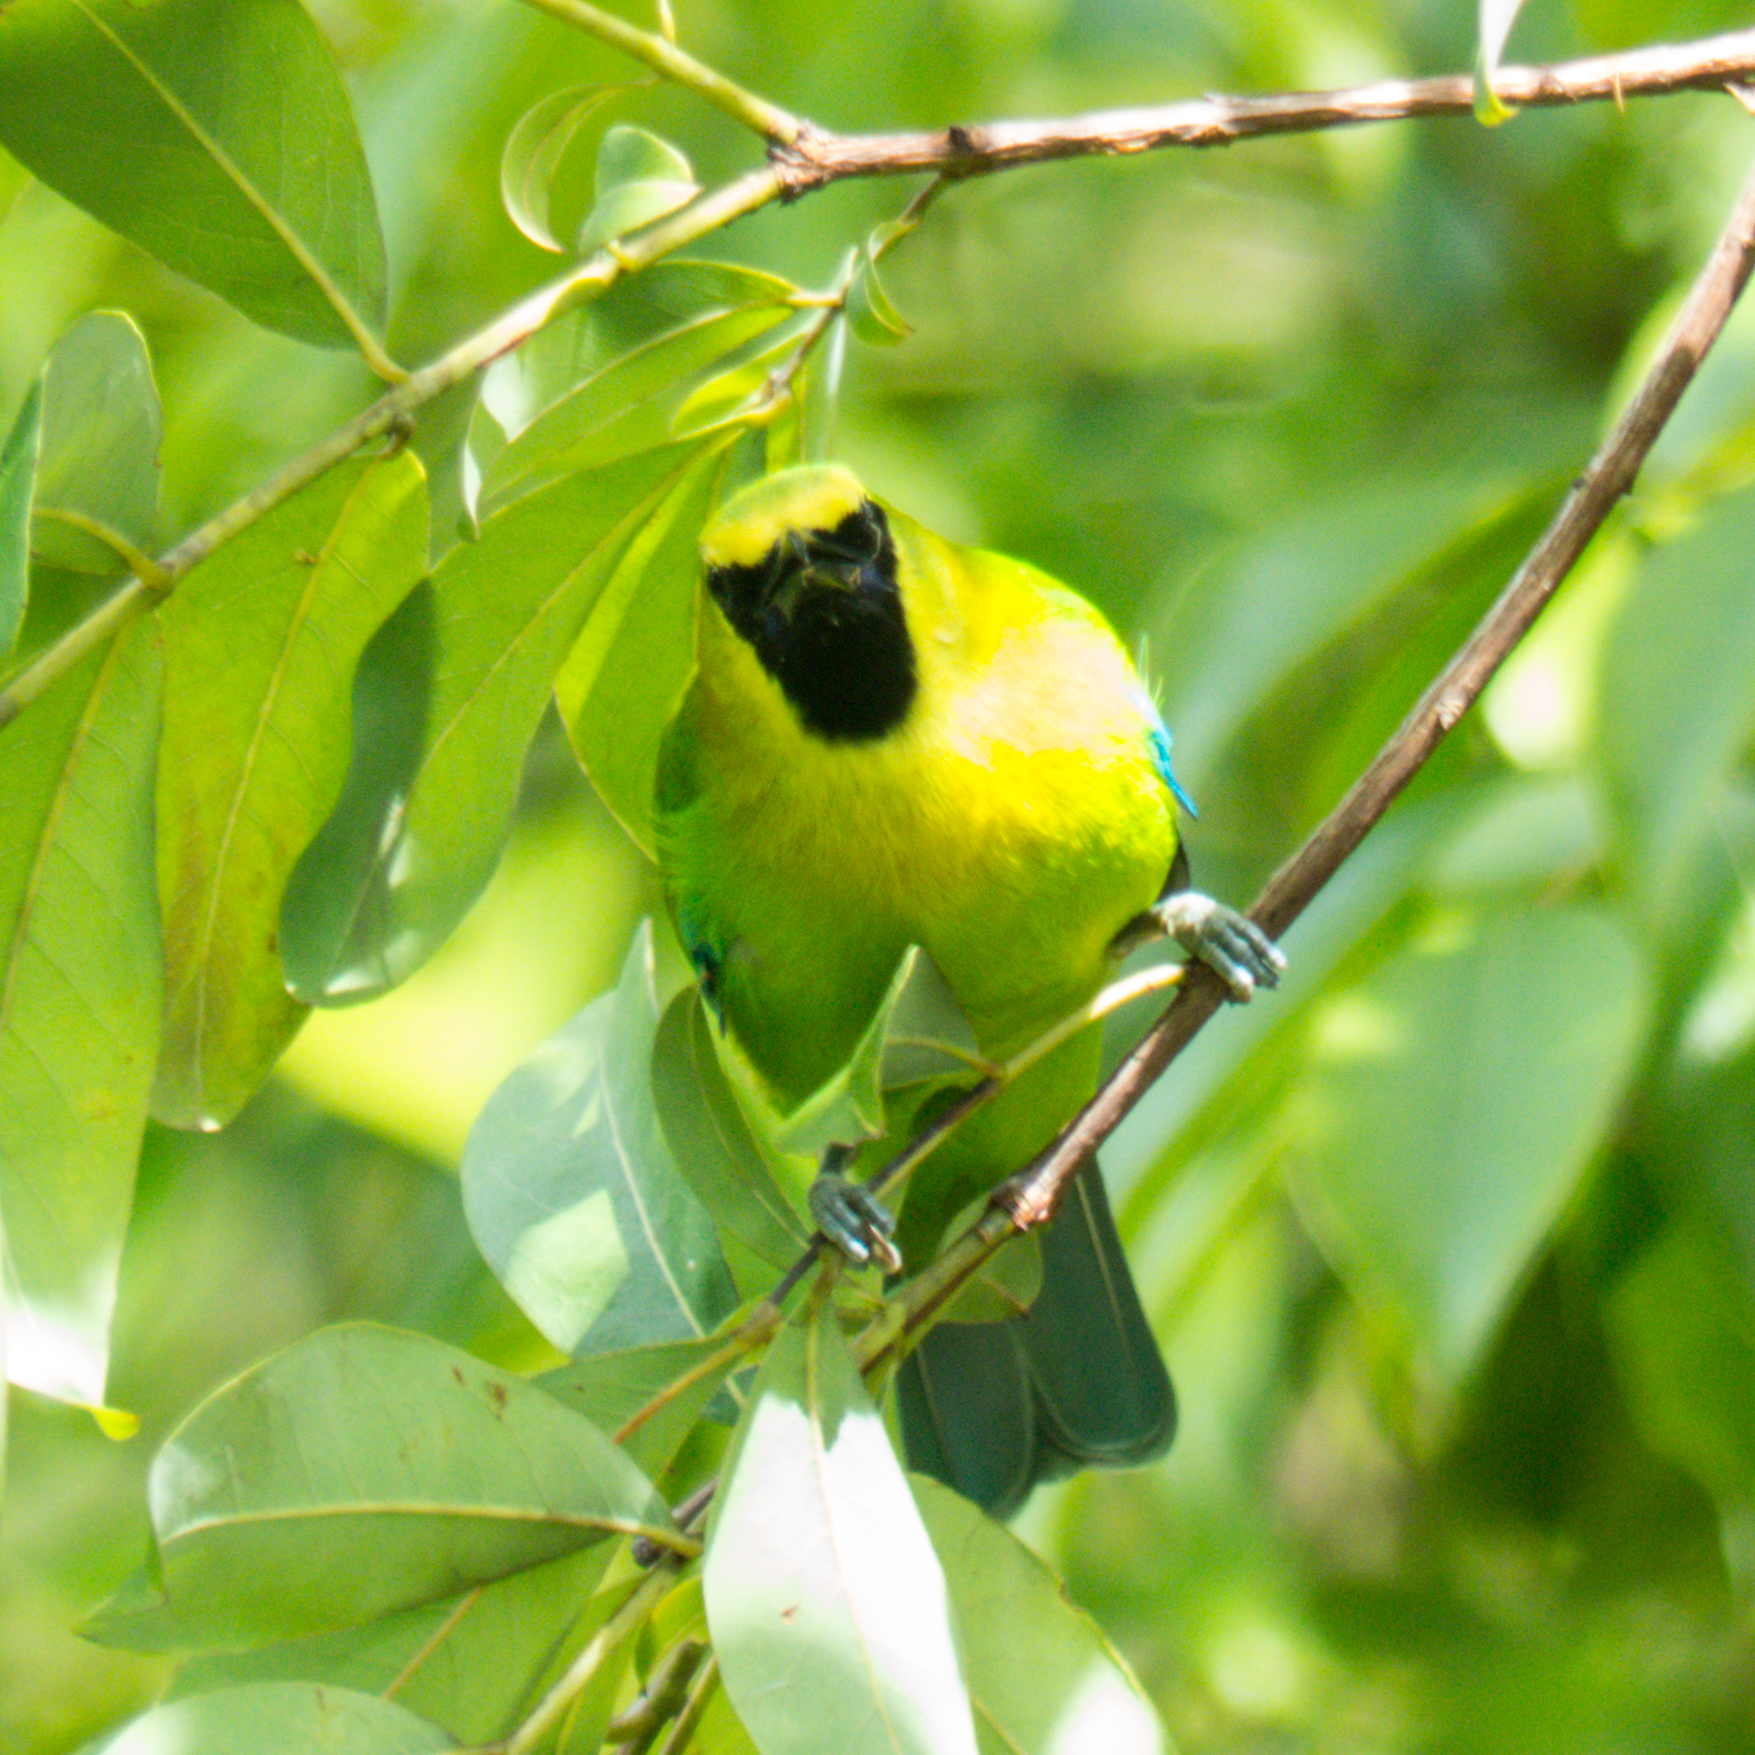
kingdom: Animalia
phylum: Chordata
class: Aves
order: Passeriformes
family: Chloropseidae
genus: Chloropsis
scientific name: Chloropsis moluccensis
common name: Blue-winged leafbird
